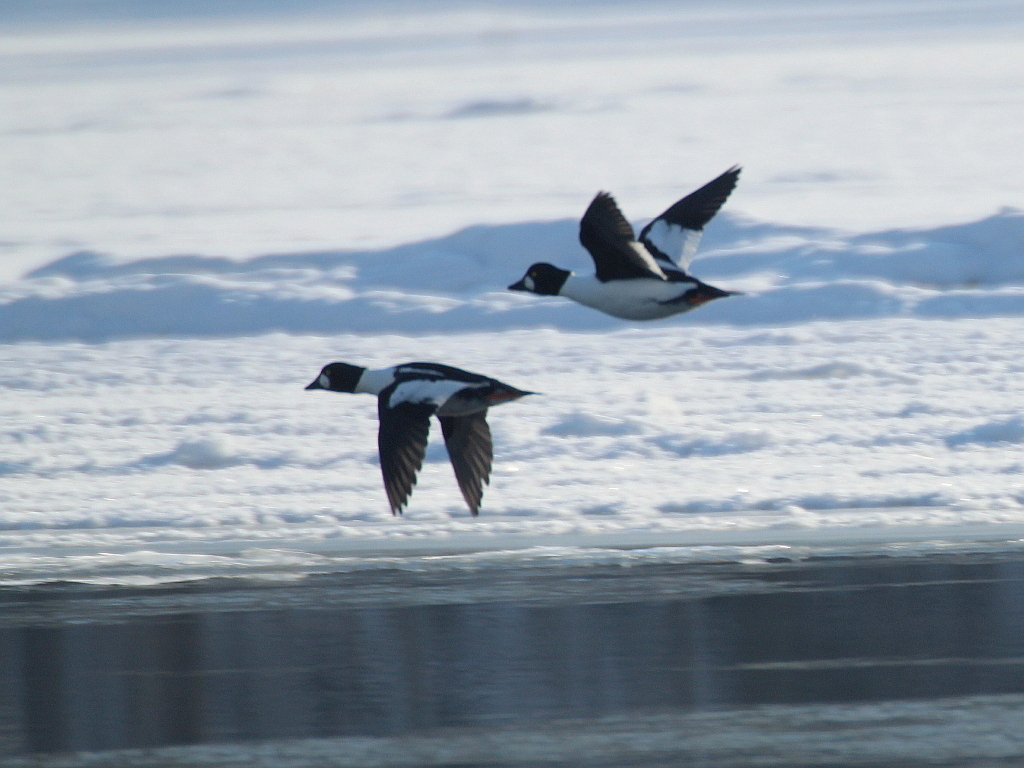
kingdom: Animalia
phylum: Chordata
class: Aves
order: Anseriformes
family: Anatidae
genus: Bucephala
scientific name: Bucephala clangula
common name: Common goldeneye
